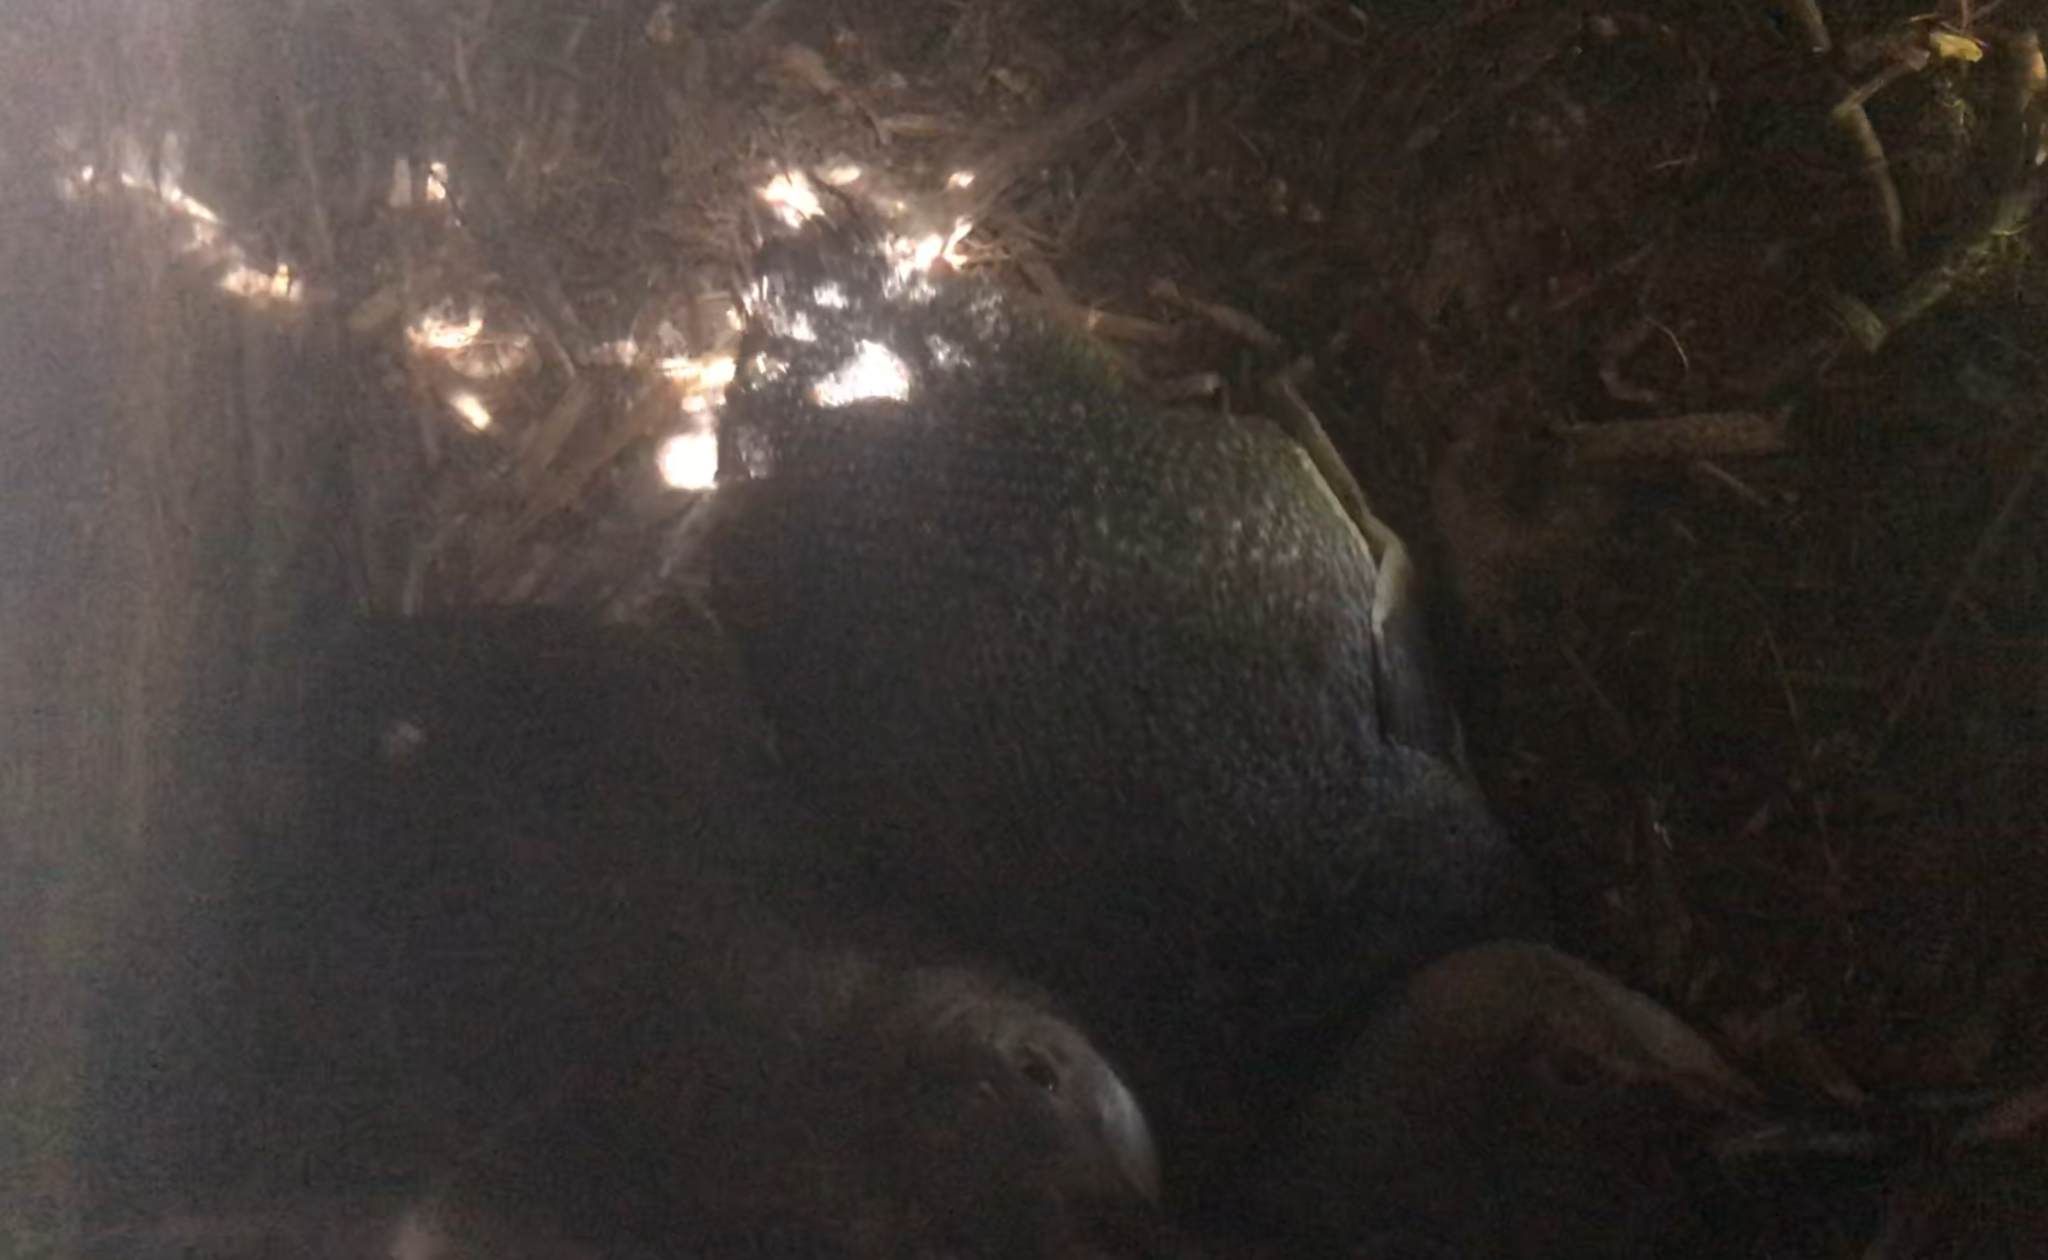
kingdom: Animalia
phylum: Chordata
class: Aves
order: Sphenisciformes
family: Spheniscidae
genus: Eudyptula
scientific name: Eudyptula minor
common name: Little penguin
